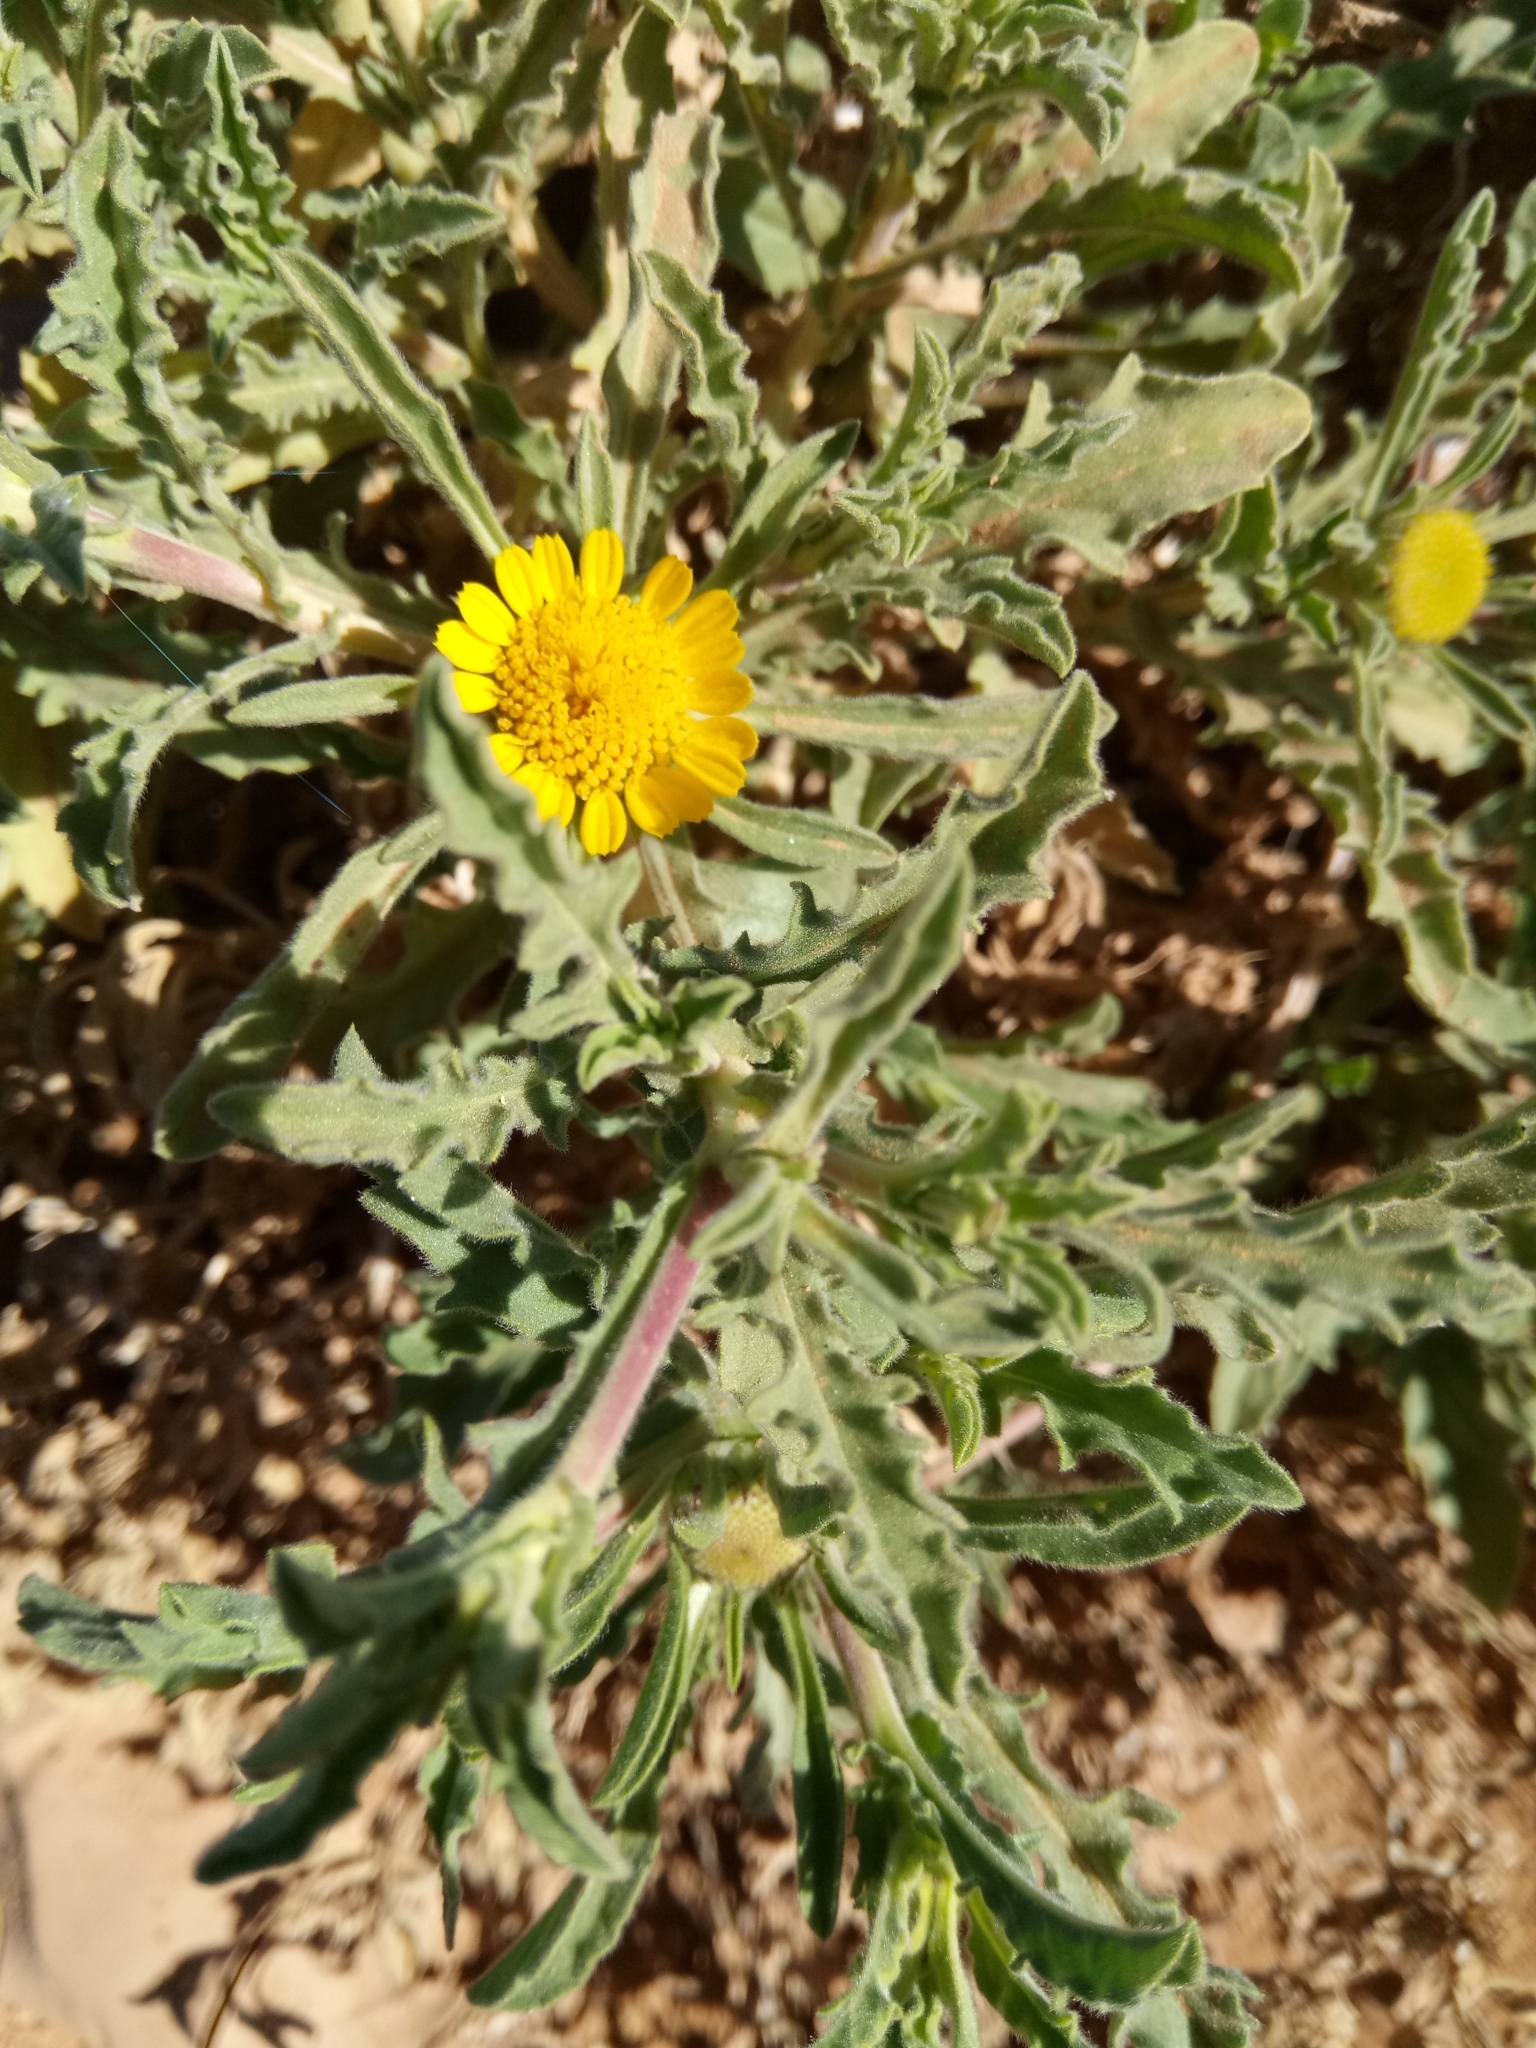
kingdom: Plantae
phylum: Tracheophyta
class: Magnoliopsida
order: Asterales
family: Asteraceae
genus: Asteriscus
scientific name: Asteriscus graveolens
